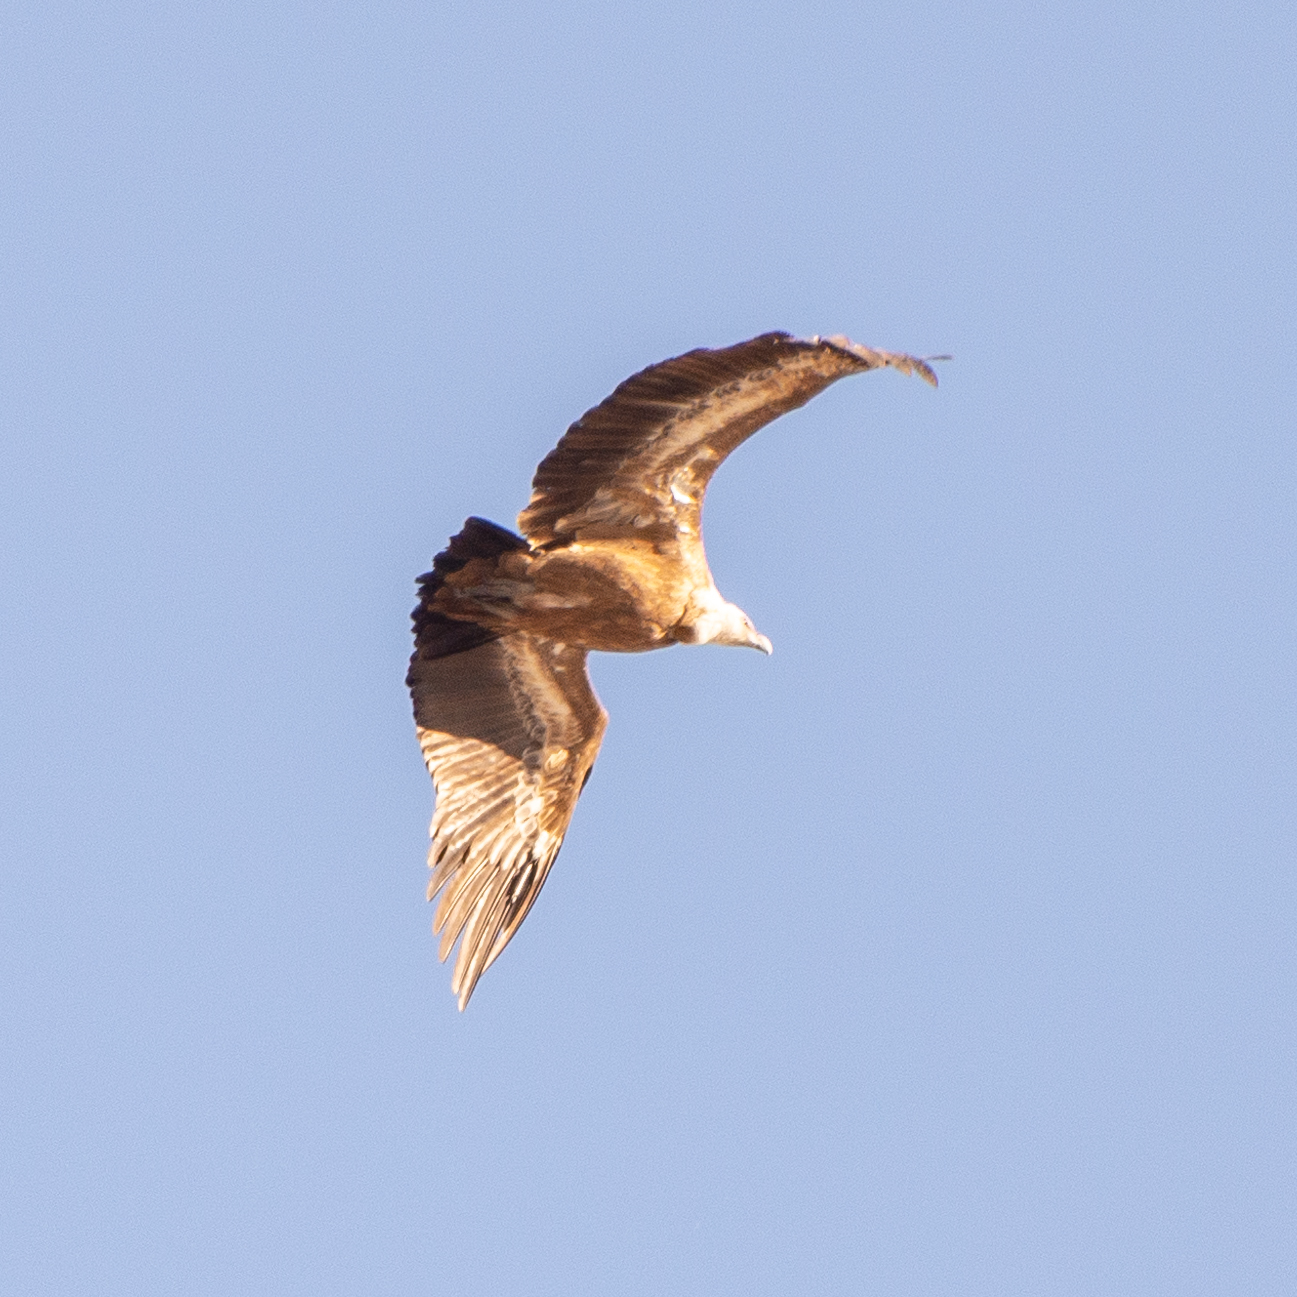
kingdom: Animalia
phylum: Chordata
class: Aves
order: Accipitriformes
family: Accipitridae
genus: Gyps
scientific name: Gyps fulvus
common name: Griffon vulture
